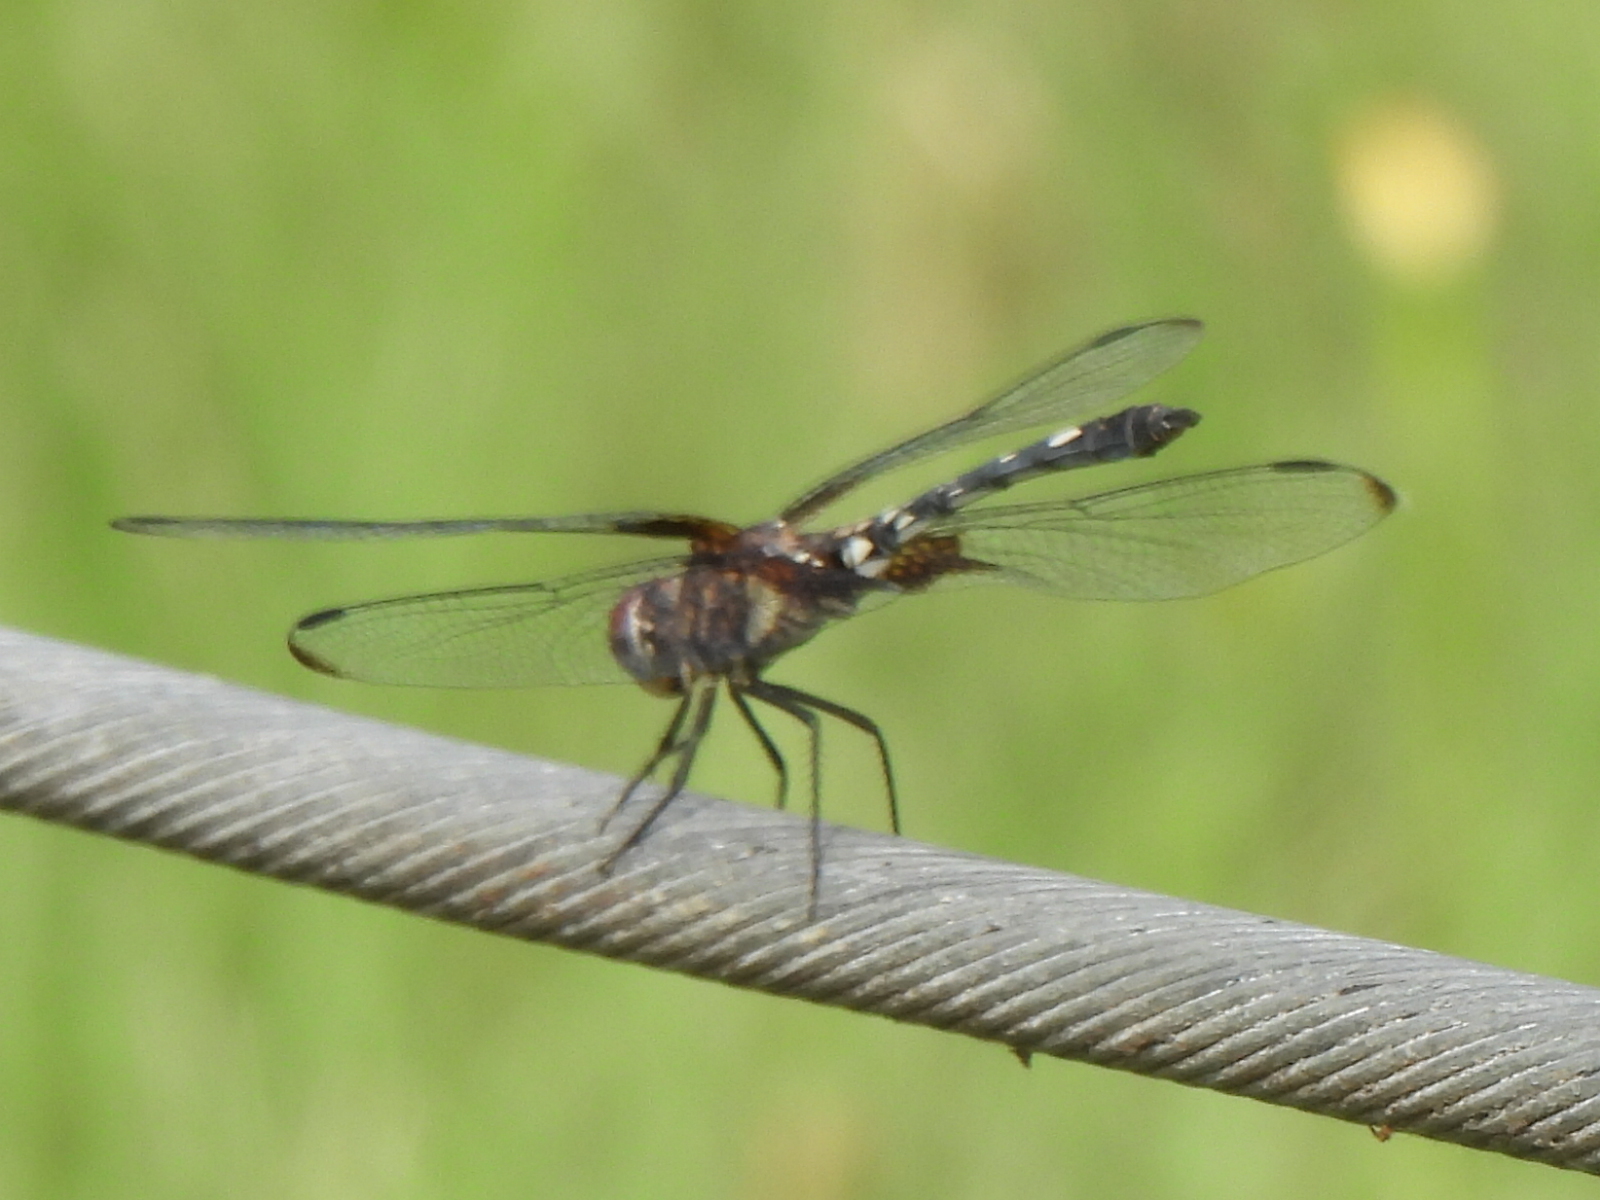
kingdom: Animalia
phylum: Arthropoda
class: Insecta
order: Odonata
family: Libellulidae
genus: Dythemis
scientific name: Dythemis fugax
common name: Checkered setwing
